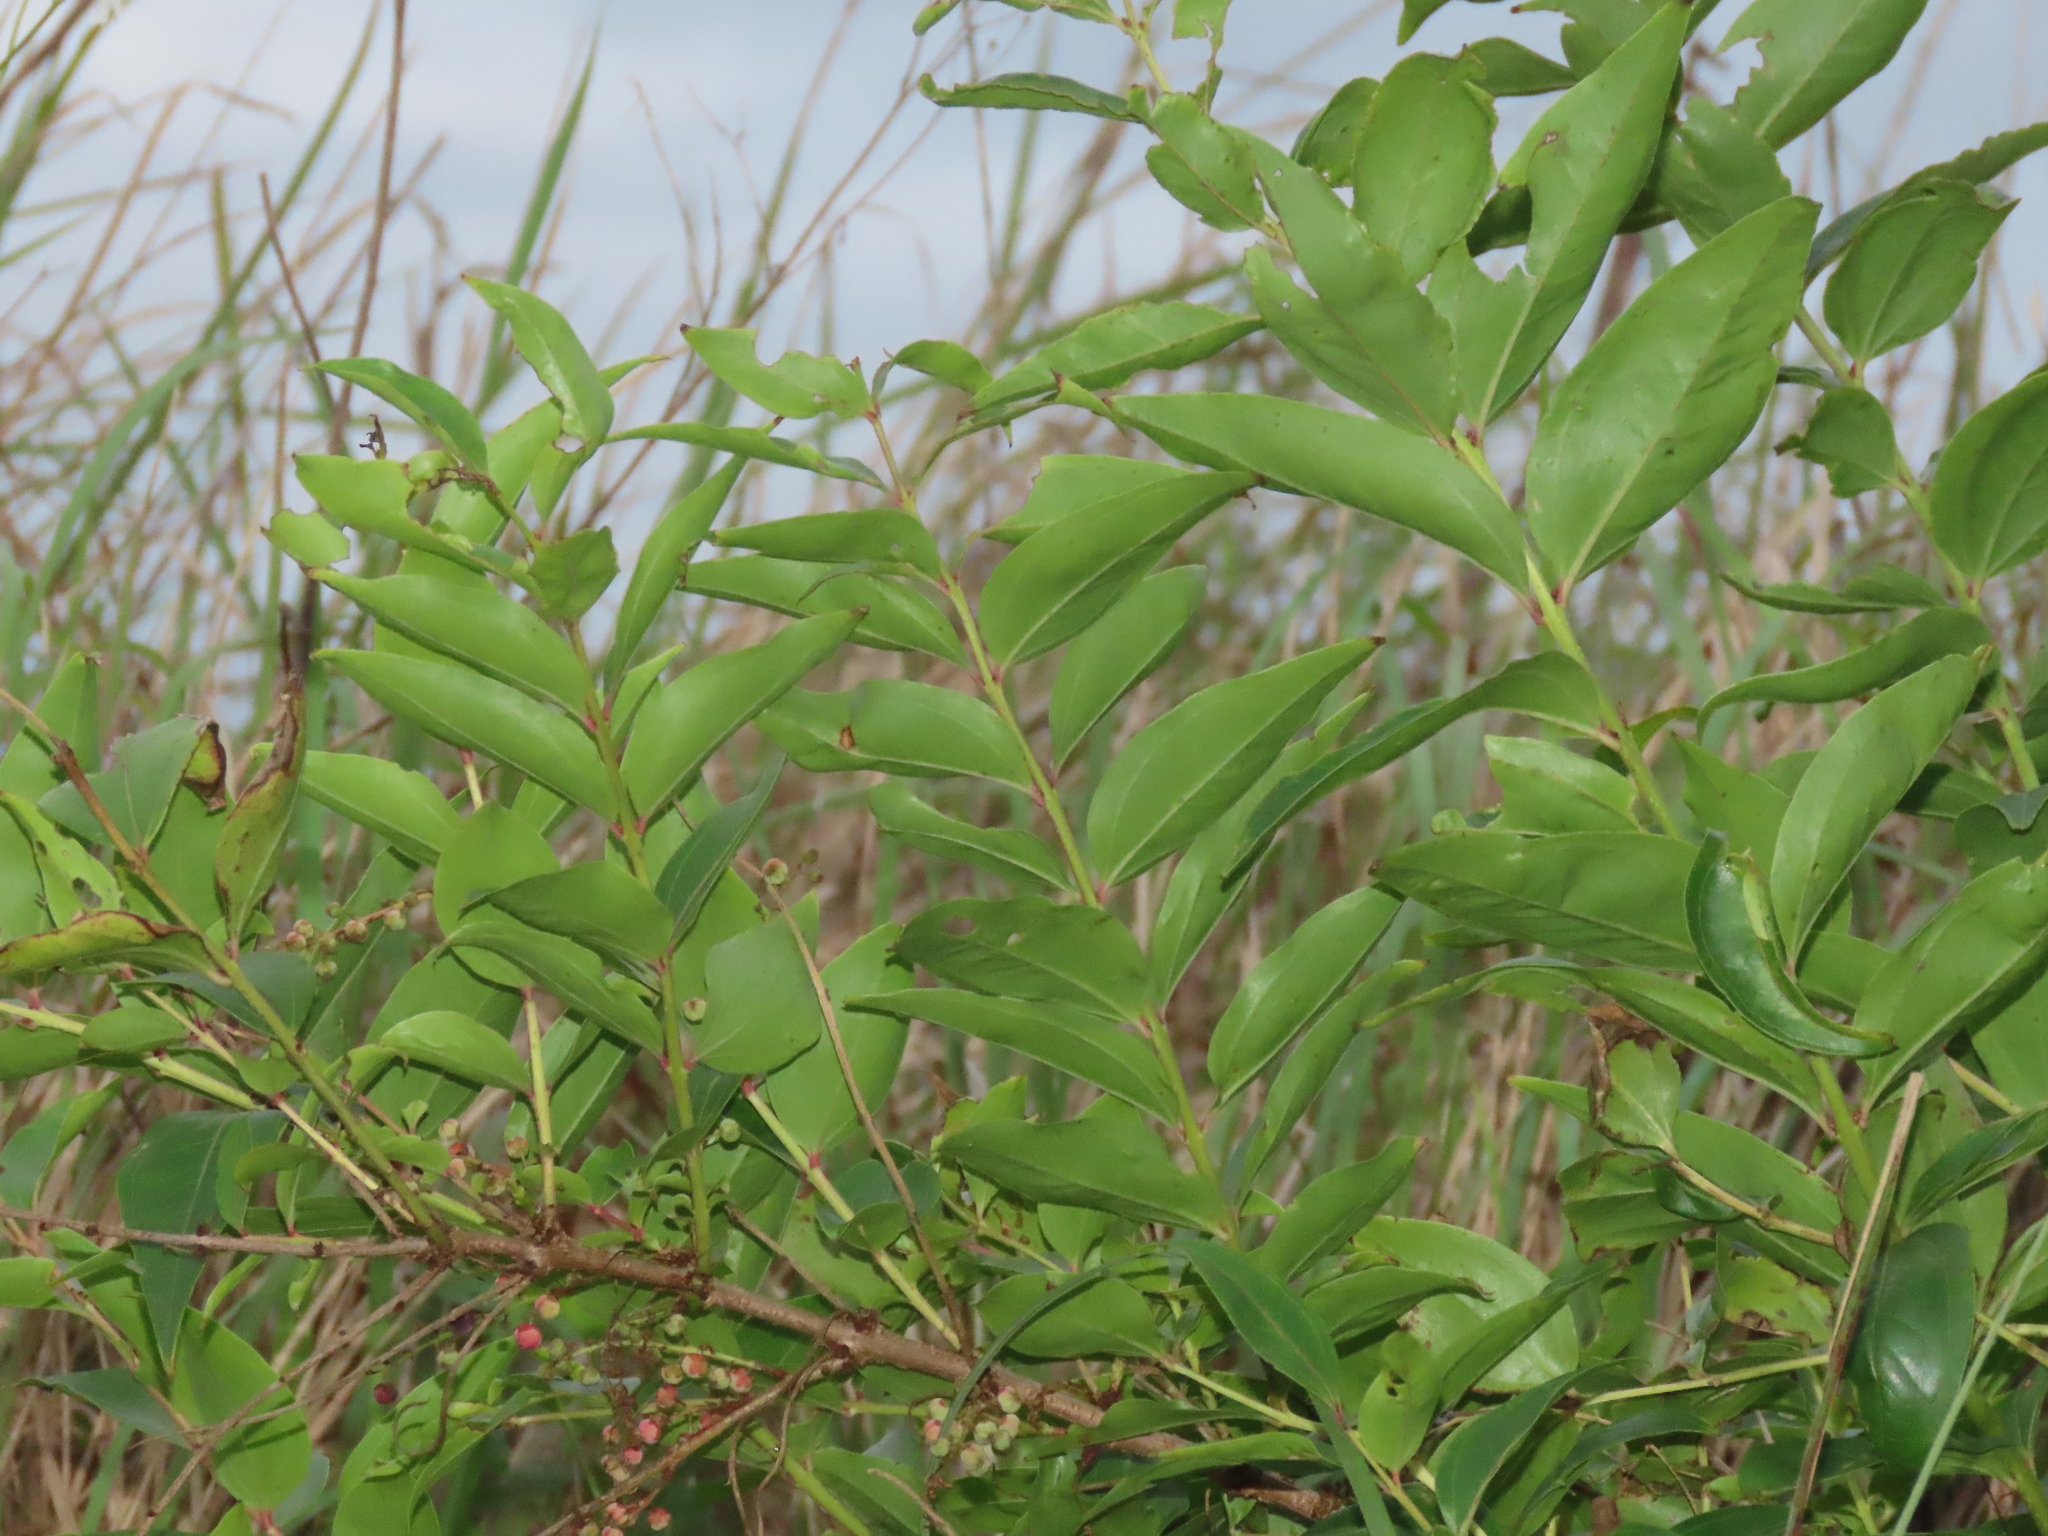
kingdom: Plantae
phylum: Tracheophyta
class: Magnoliopsida
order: Cucurbitales
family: Coriariaceae
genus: Coriaria
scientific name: Coriaria japonica
